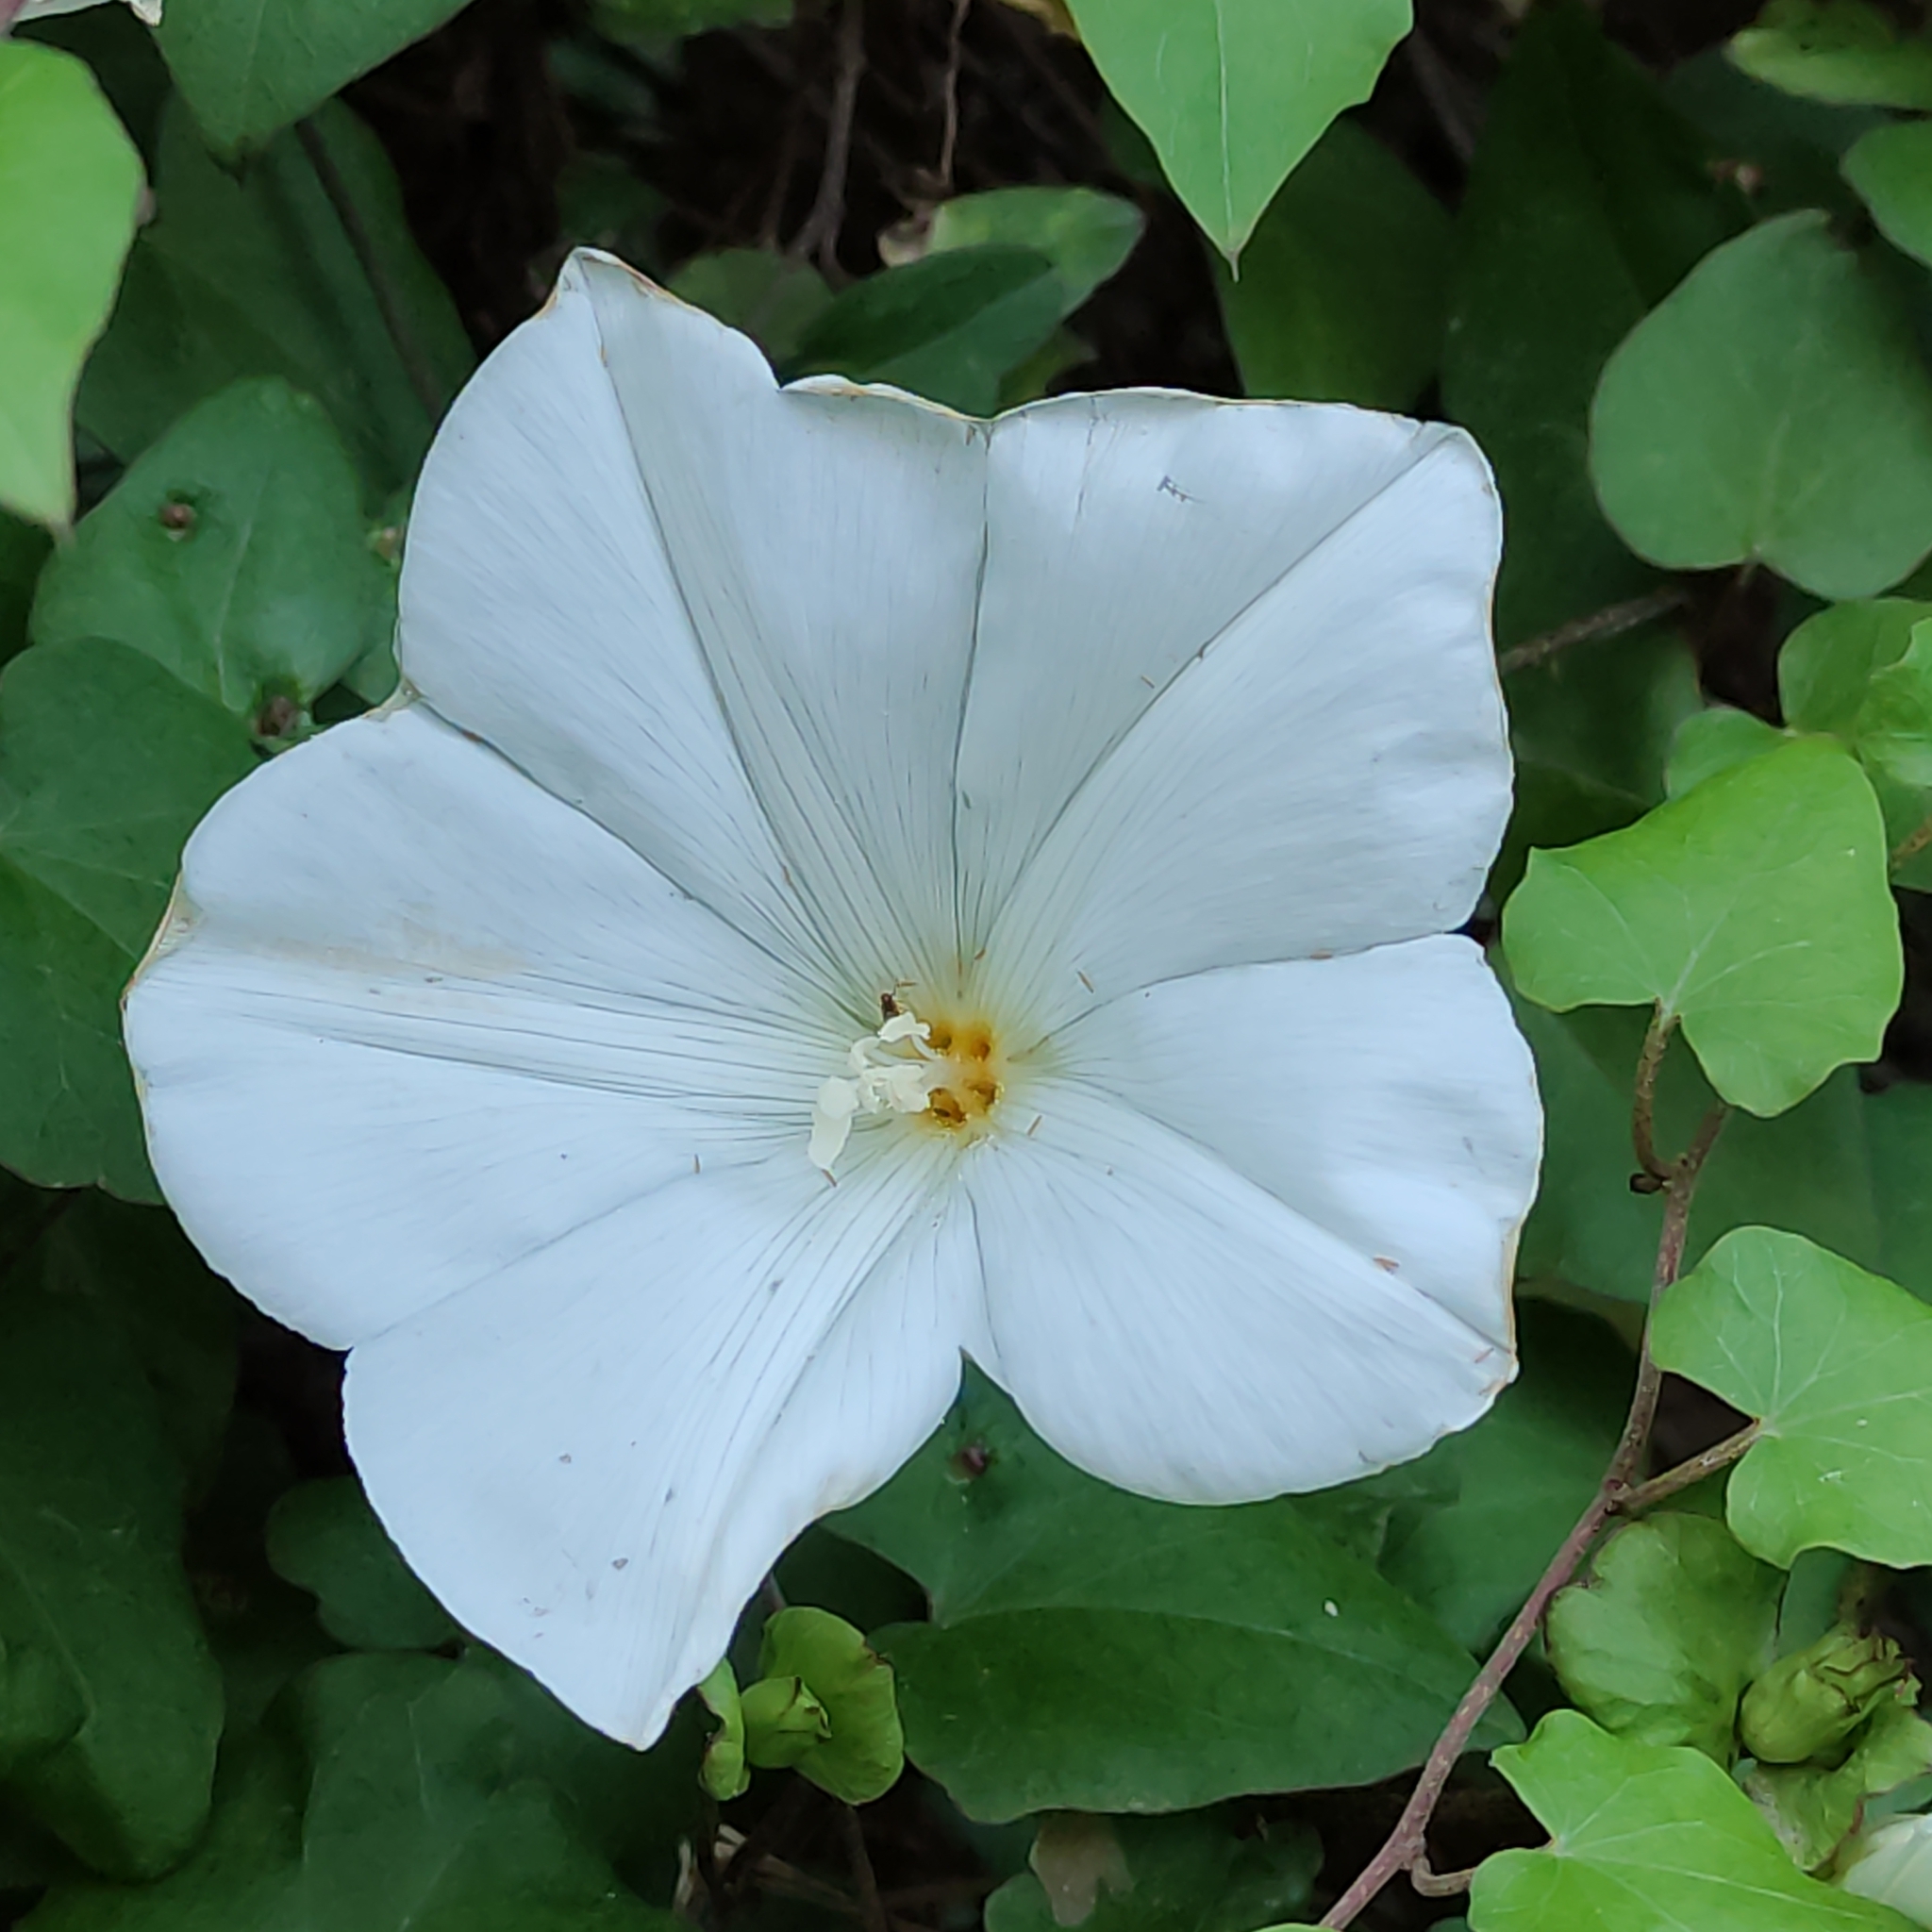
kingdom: Plantae
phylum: Tracheophyta
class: Magnoliopsida
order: Solanales
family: Convolvulaceae
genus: Calystegia
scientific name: Calystegia tuguriorum
